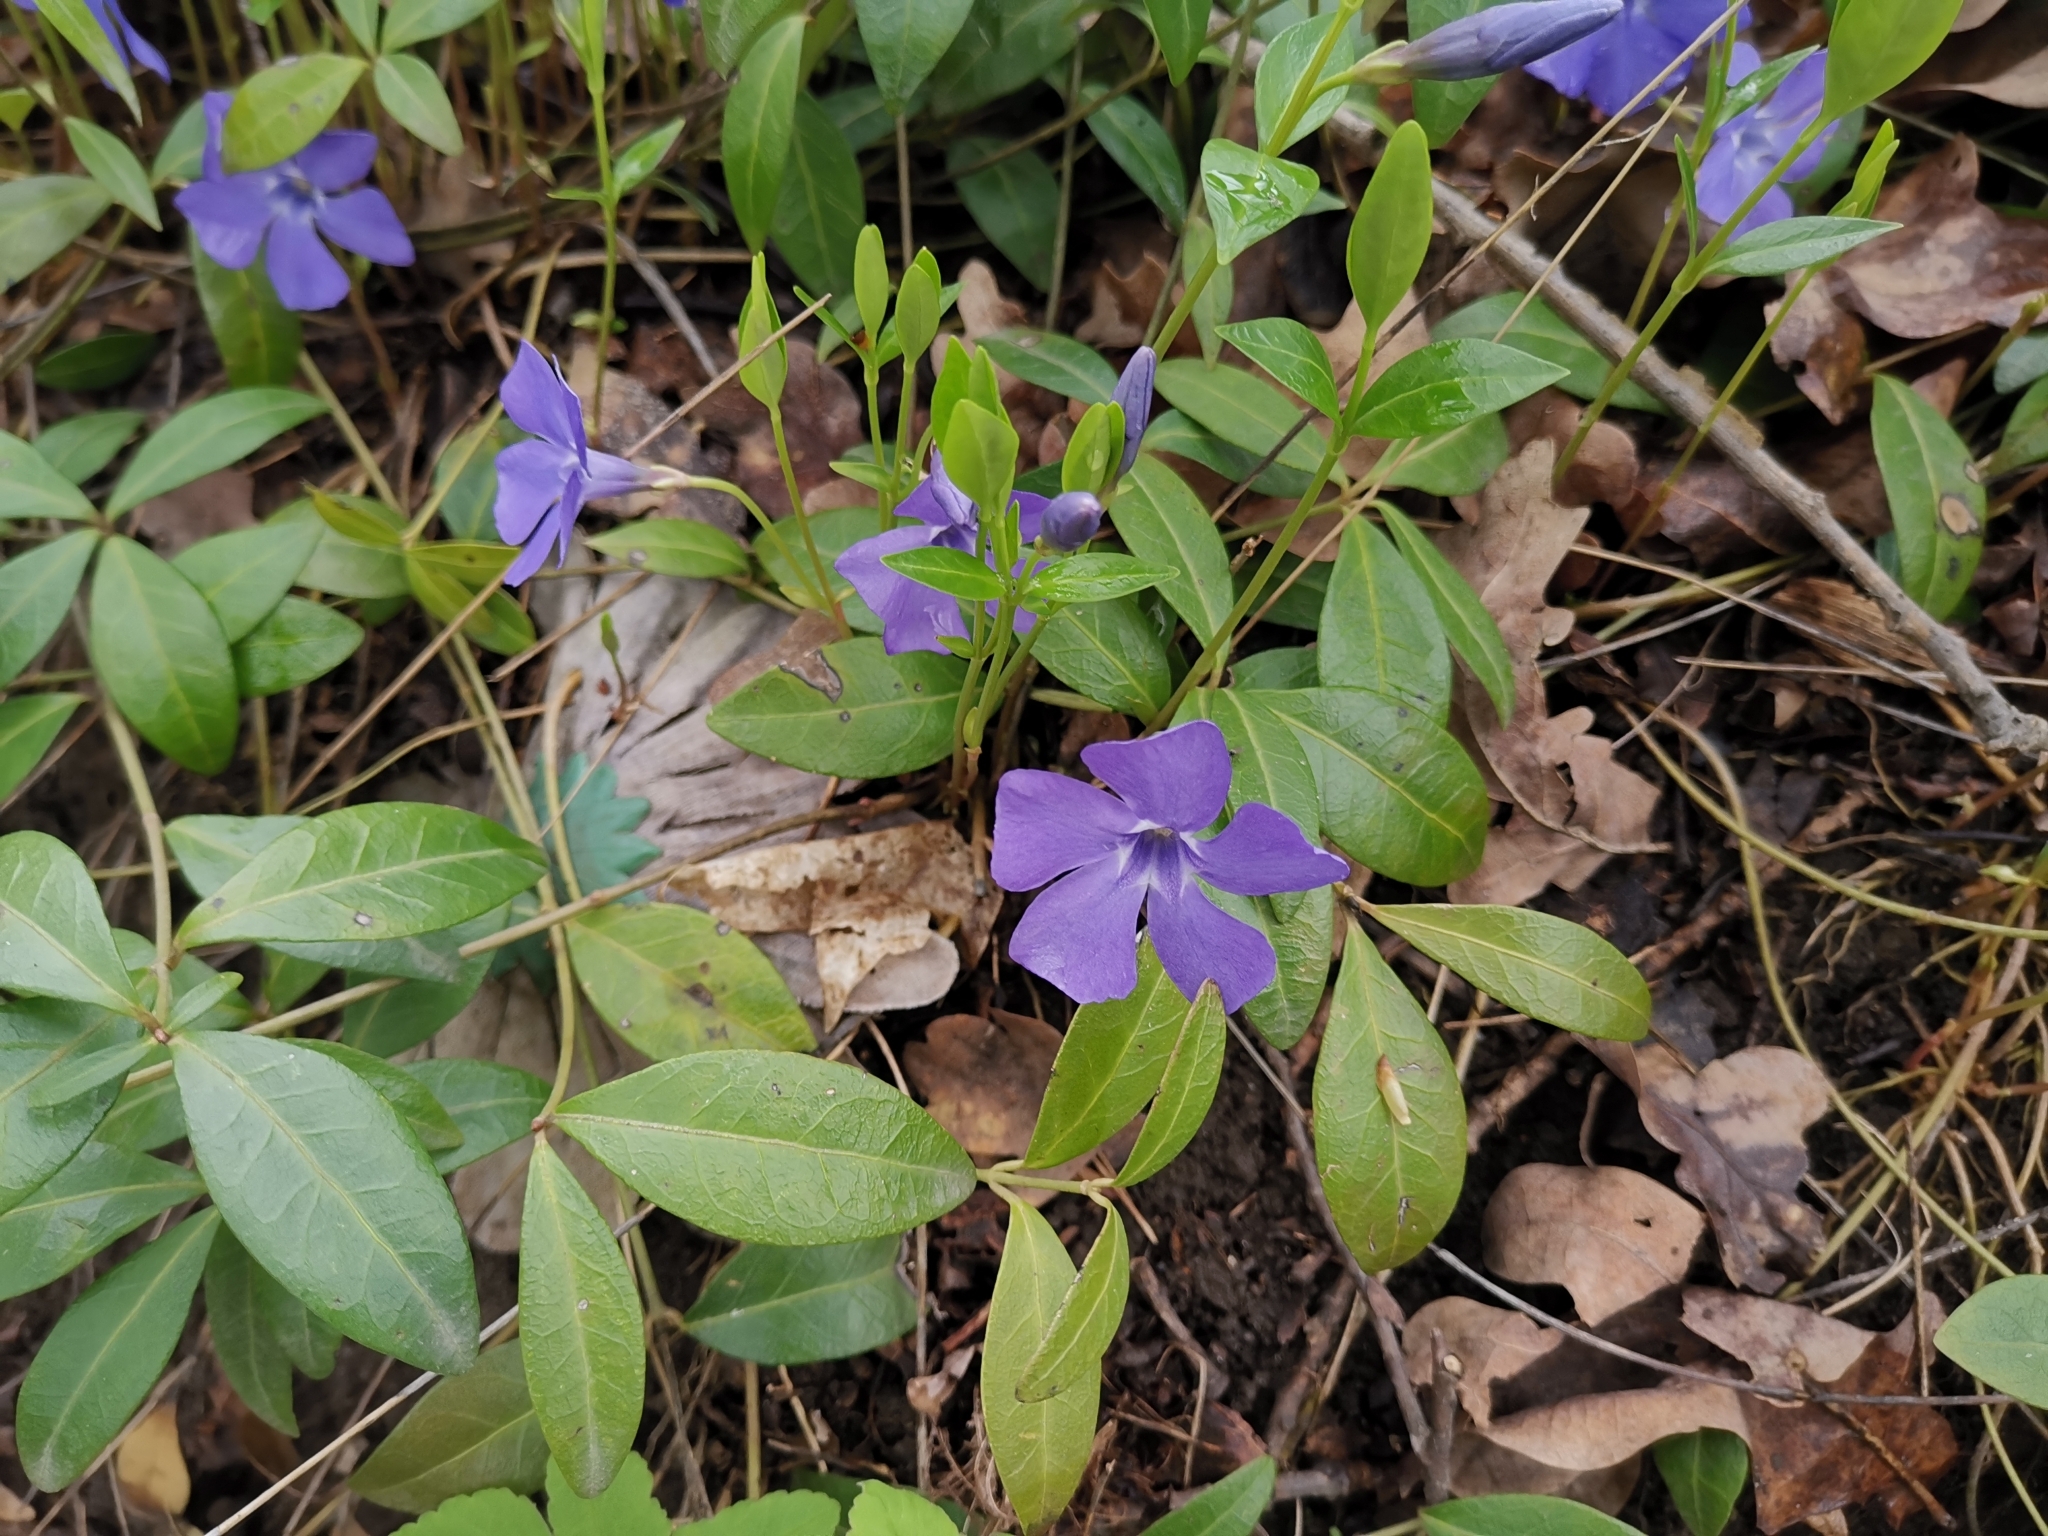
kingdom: Plantae
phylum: Tracheophyta
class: Magnoliopsida
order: Gentianales
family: Apocynaceae
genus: Vinca
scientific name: Vinca minor
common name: Lesser periwinkle
